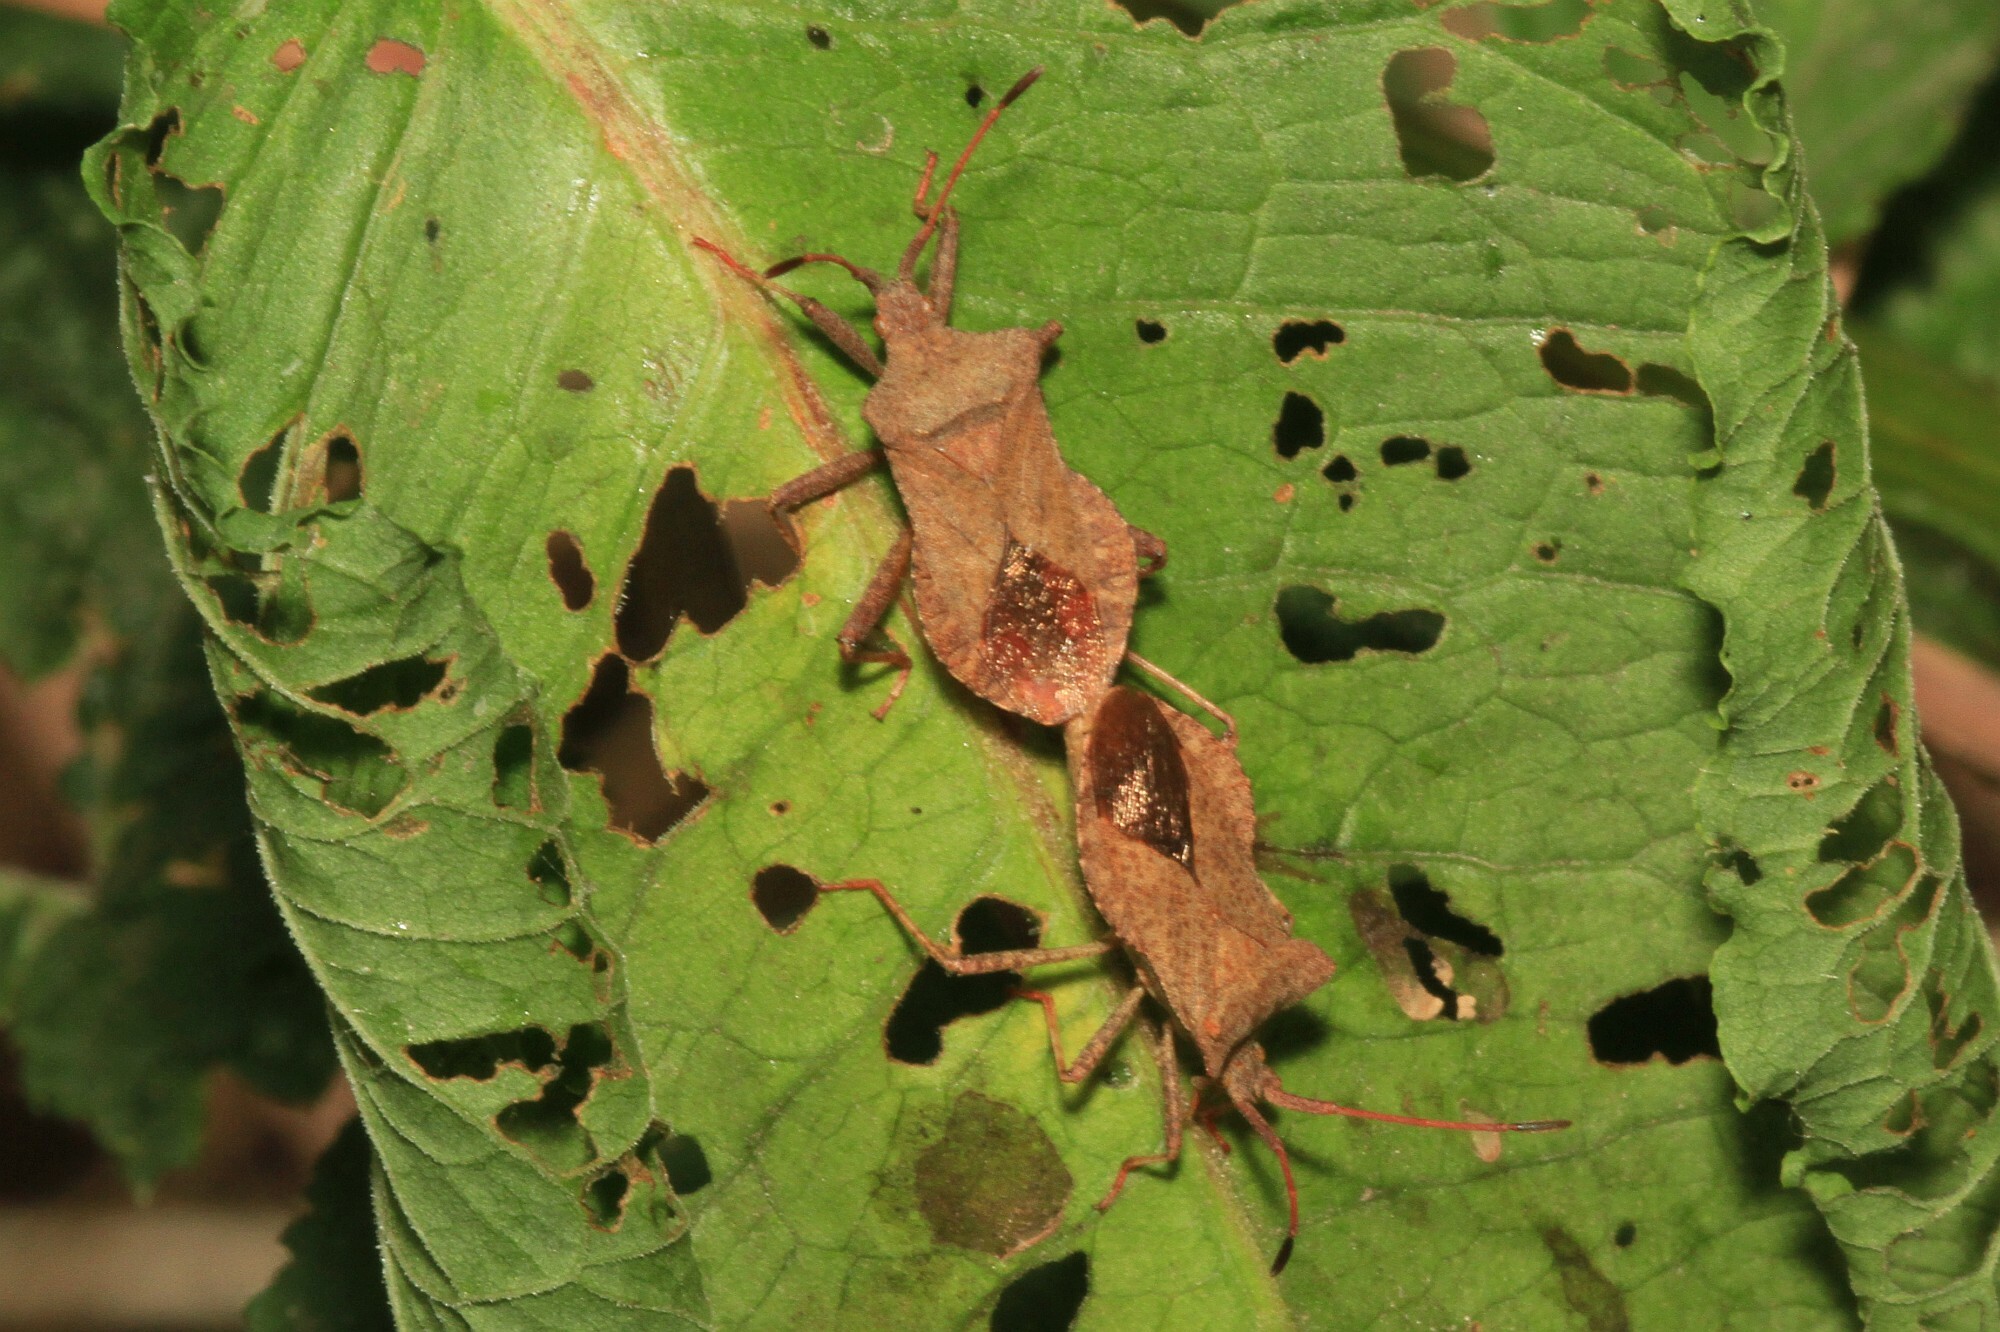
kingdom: Animalia
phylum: Arthropoda
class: Insecta
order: Hemiptera
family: Coreidae
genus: Coreus
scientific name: Coreus marginatus
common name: Dock bug
